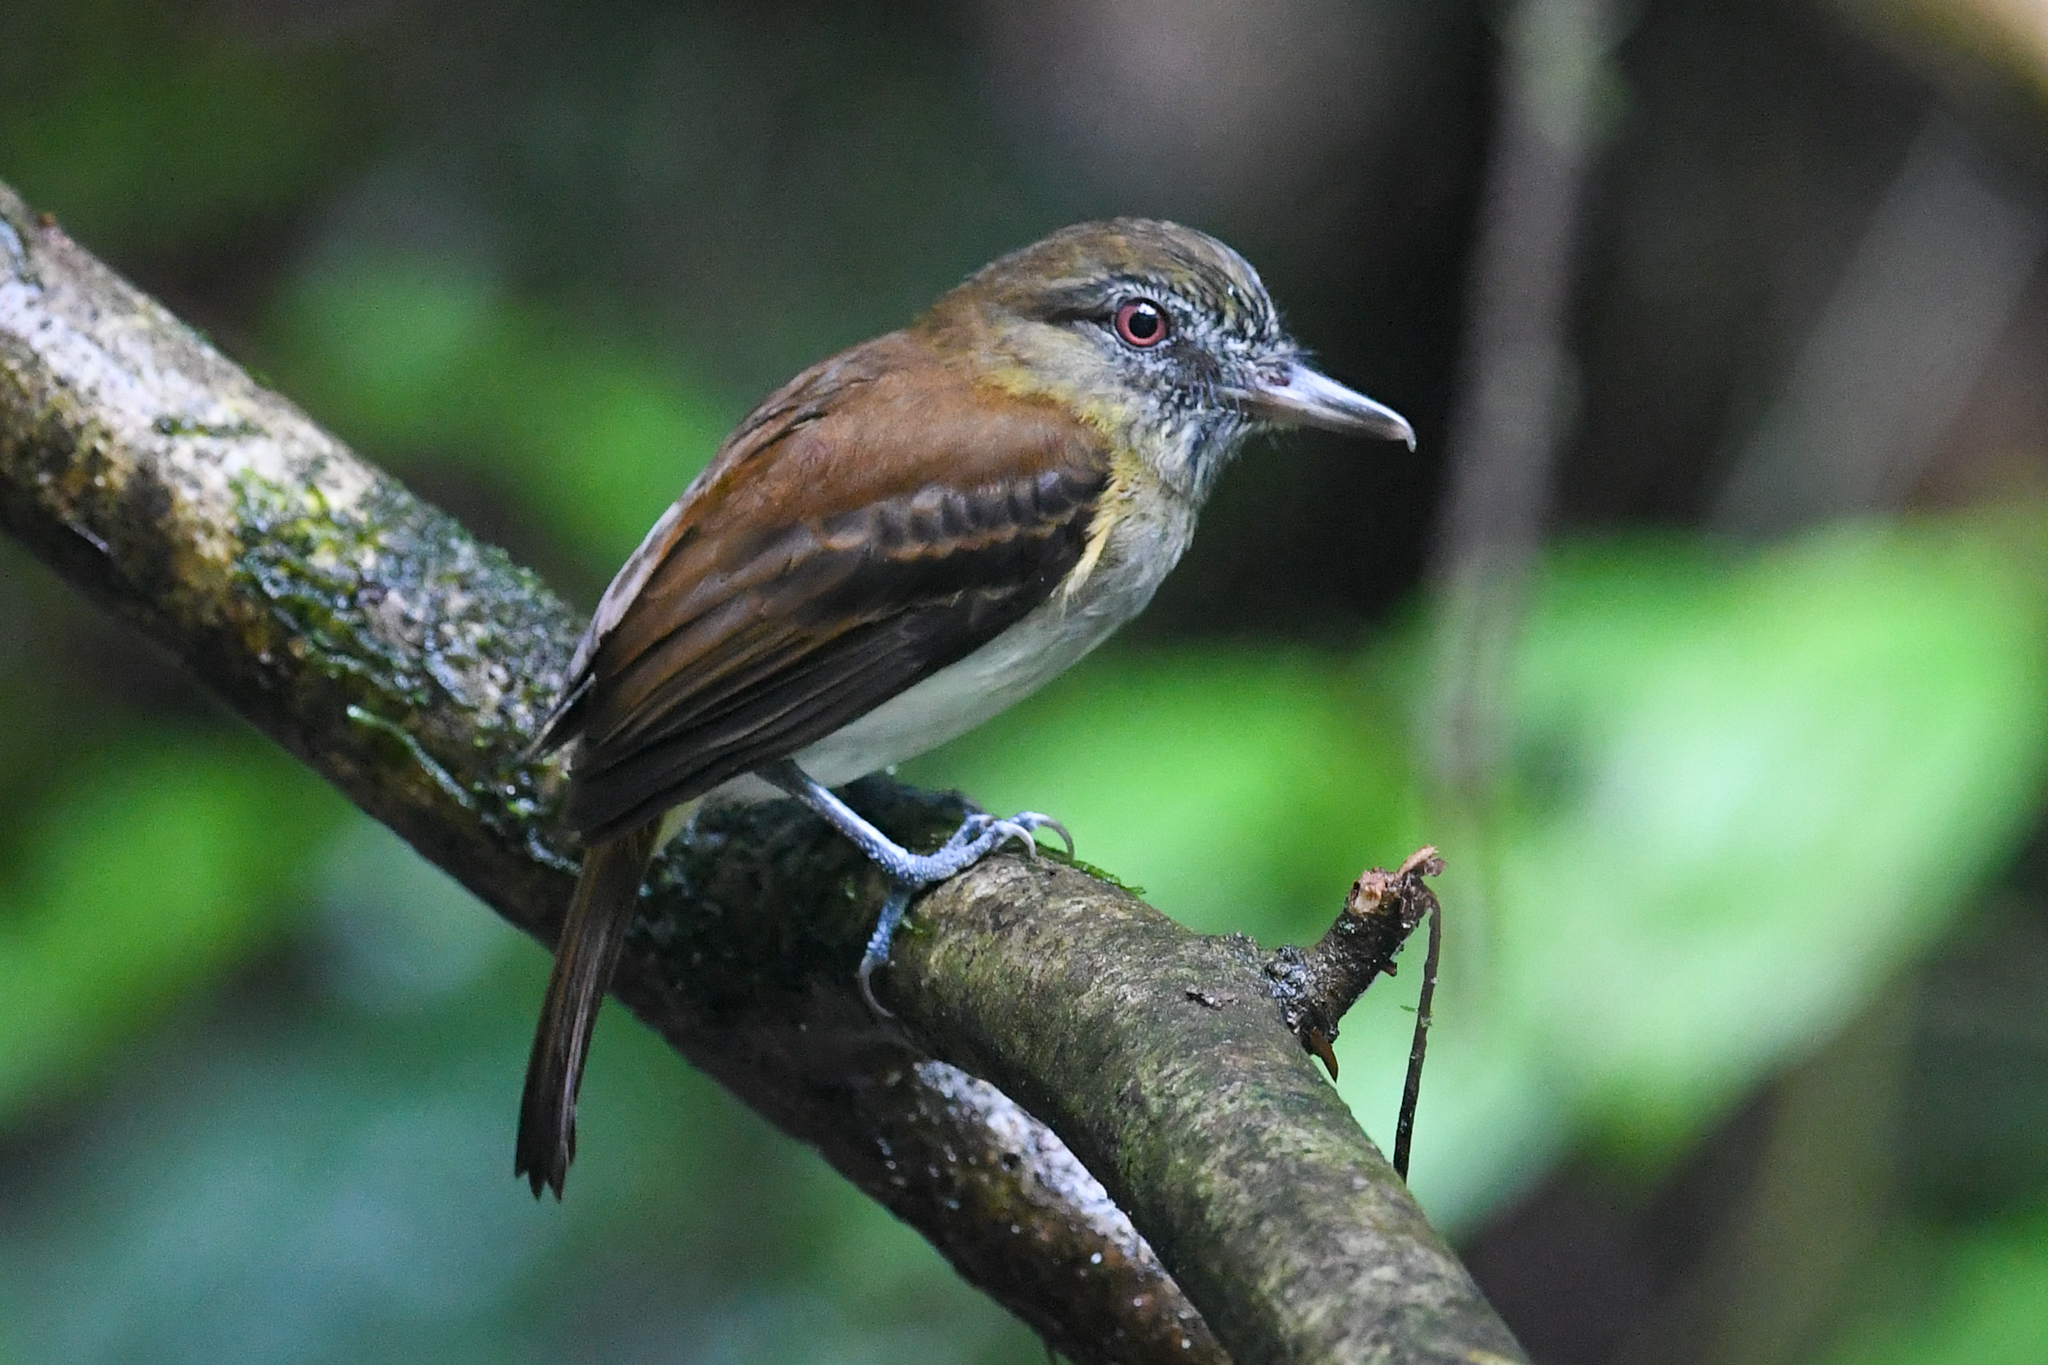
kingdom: Animalia
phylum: Chordata
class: Aves
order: Passeriformes
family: Tyrannidae
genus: Attila
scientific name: Attila spadiceus
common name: Bright-rumped attila
